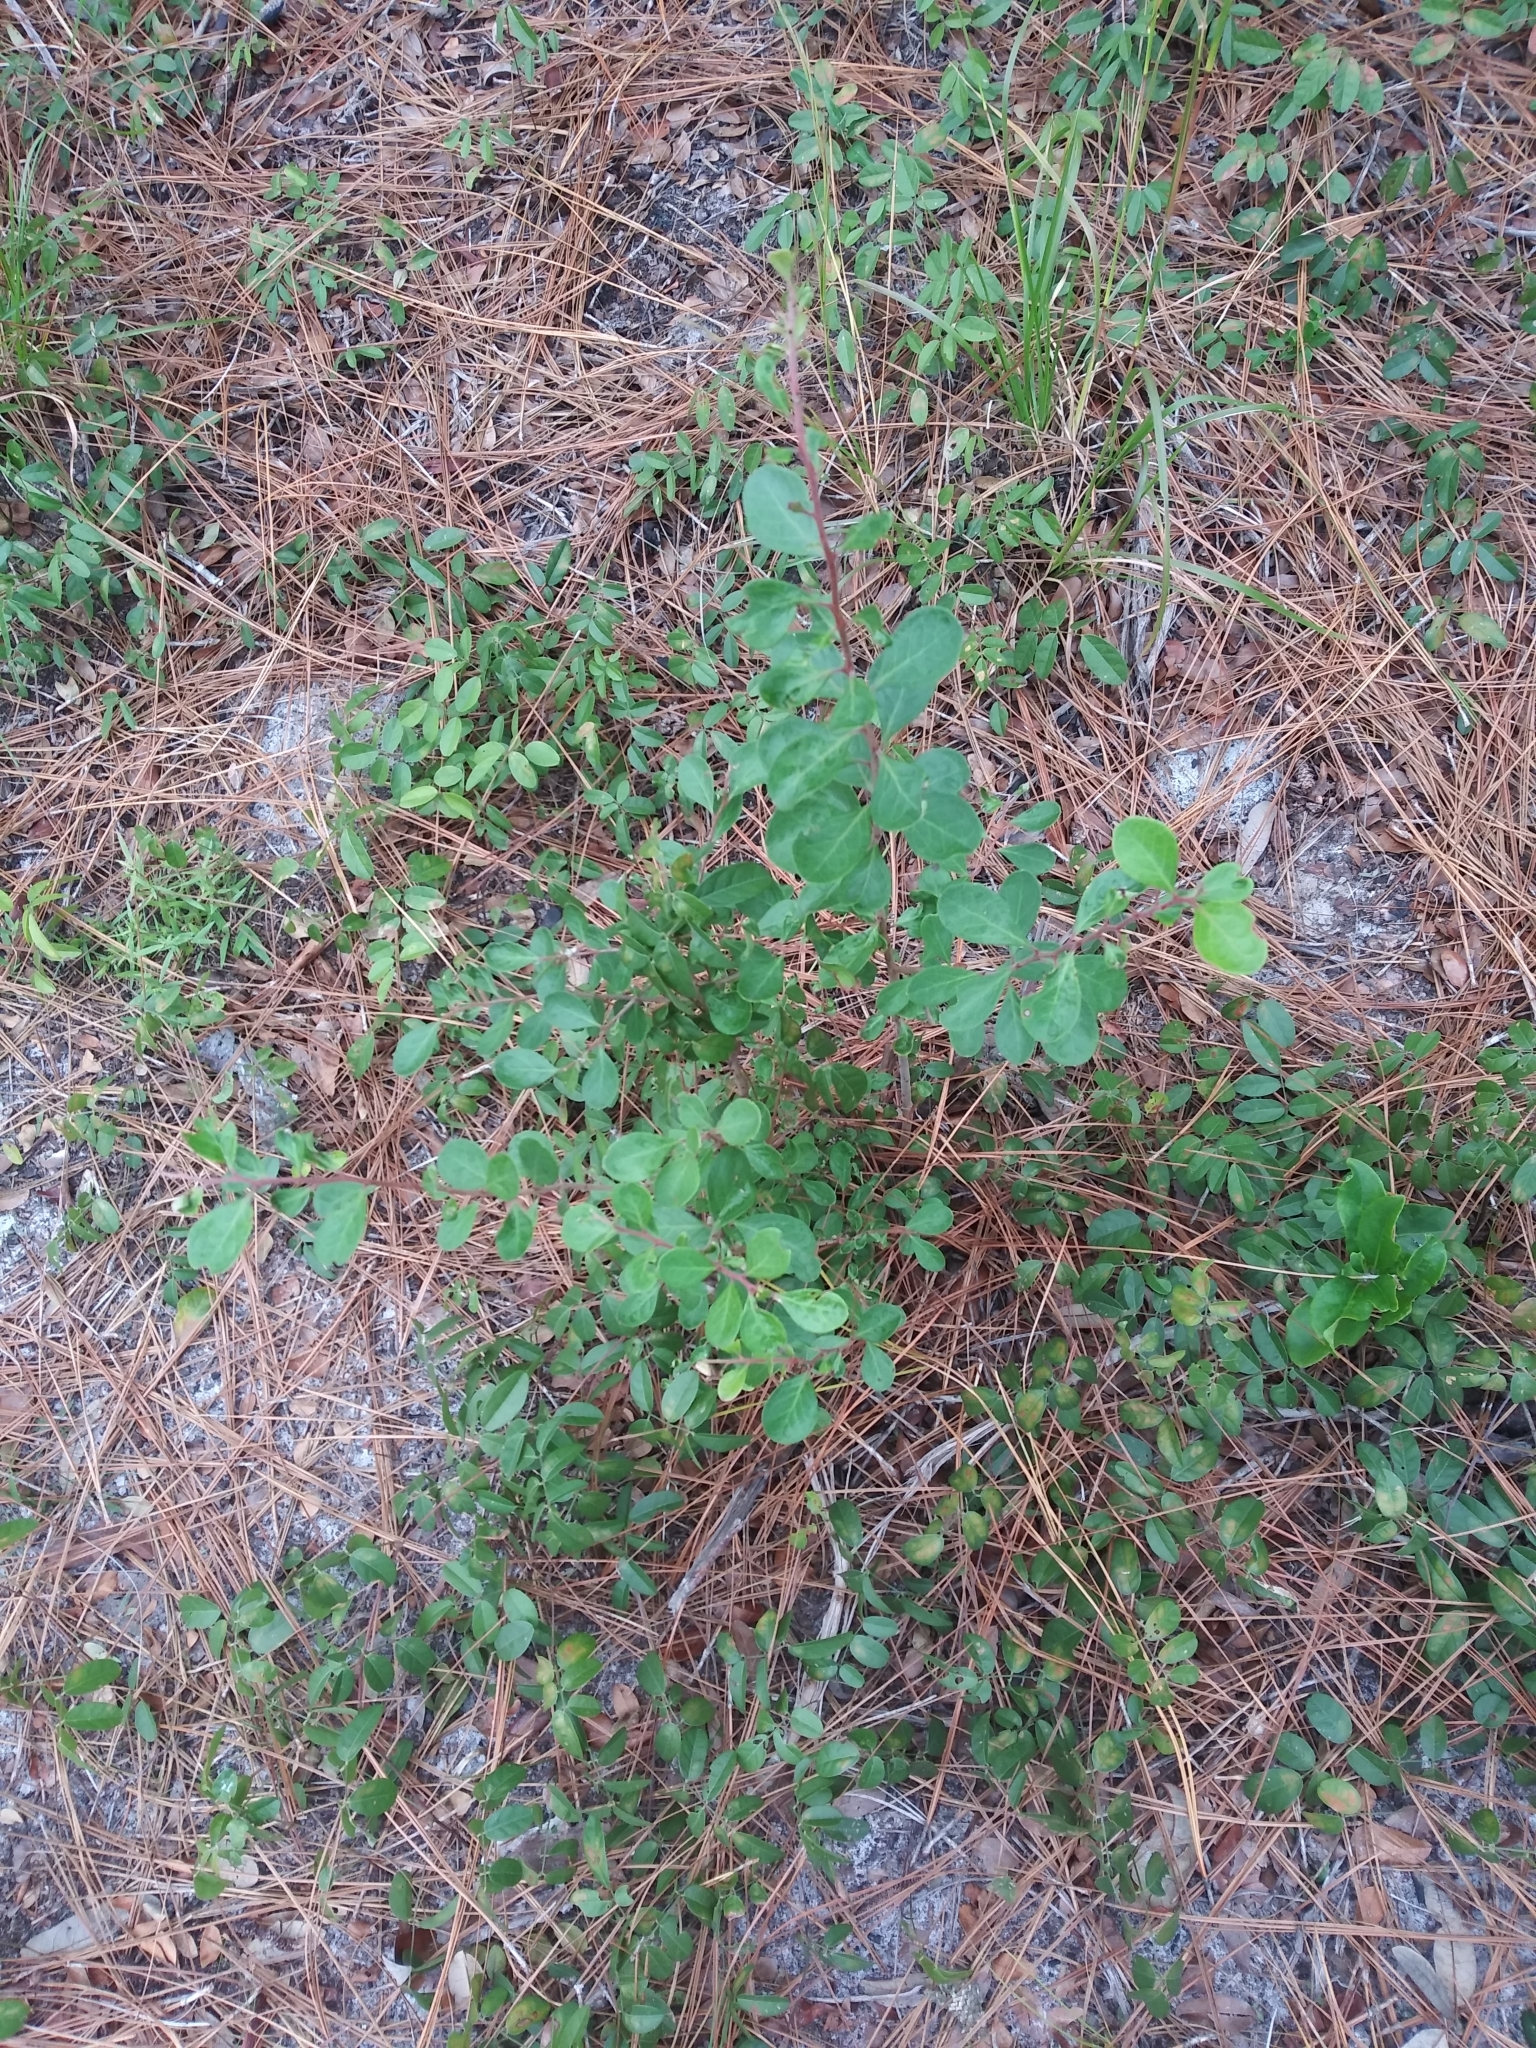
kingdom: Plantae
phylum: Tracheophyta
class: Magnoliopsida
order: Ericales
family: Ericaceae
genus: Vaccinium
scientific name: Vaccinium arboreum
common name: Farkleberry
